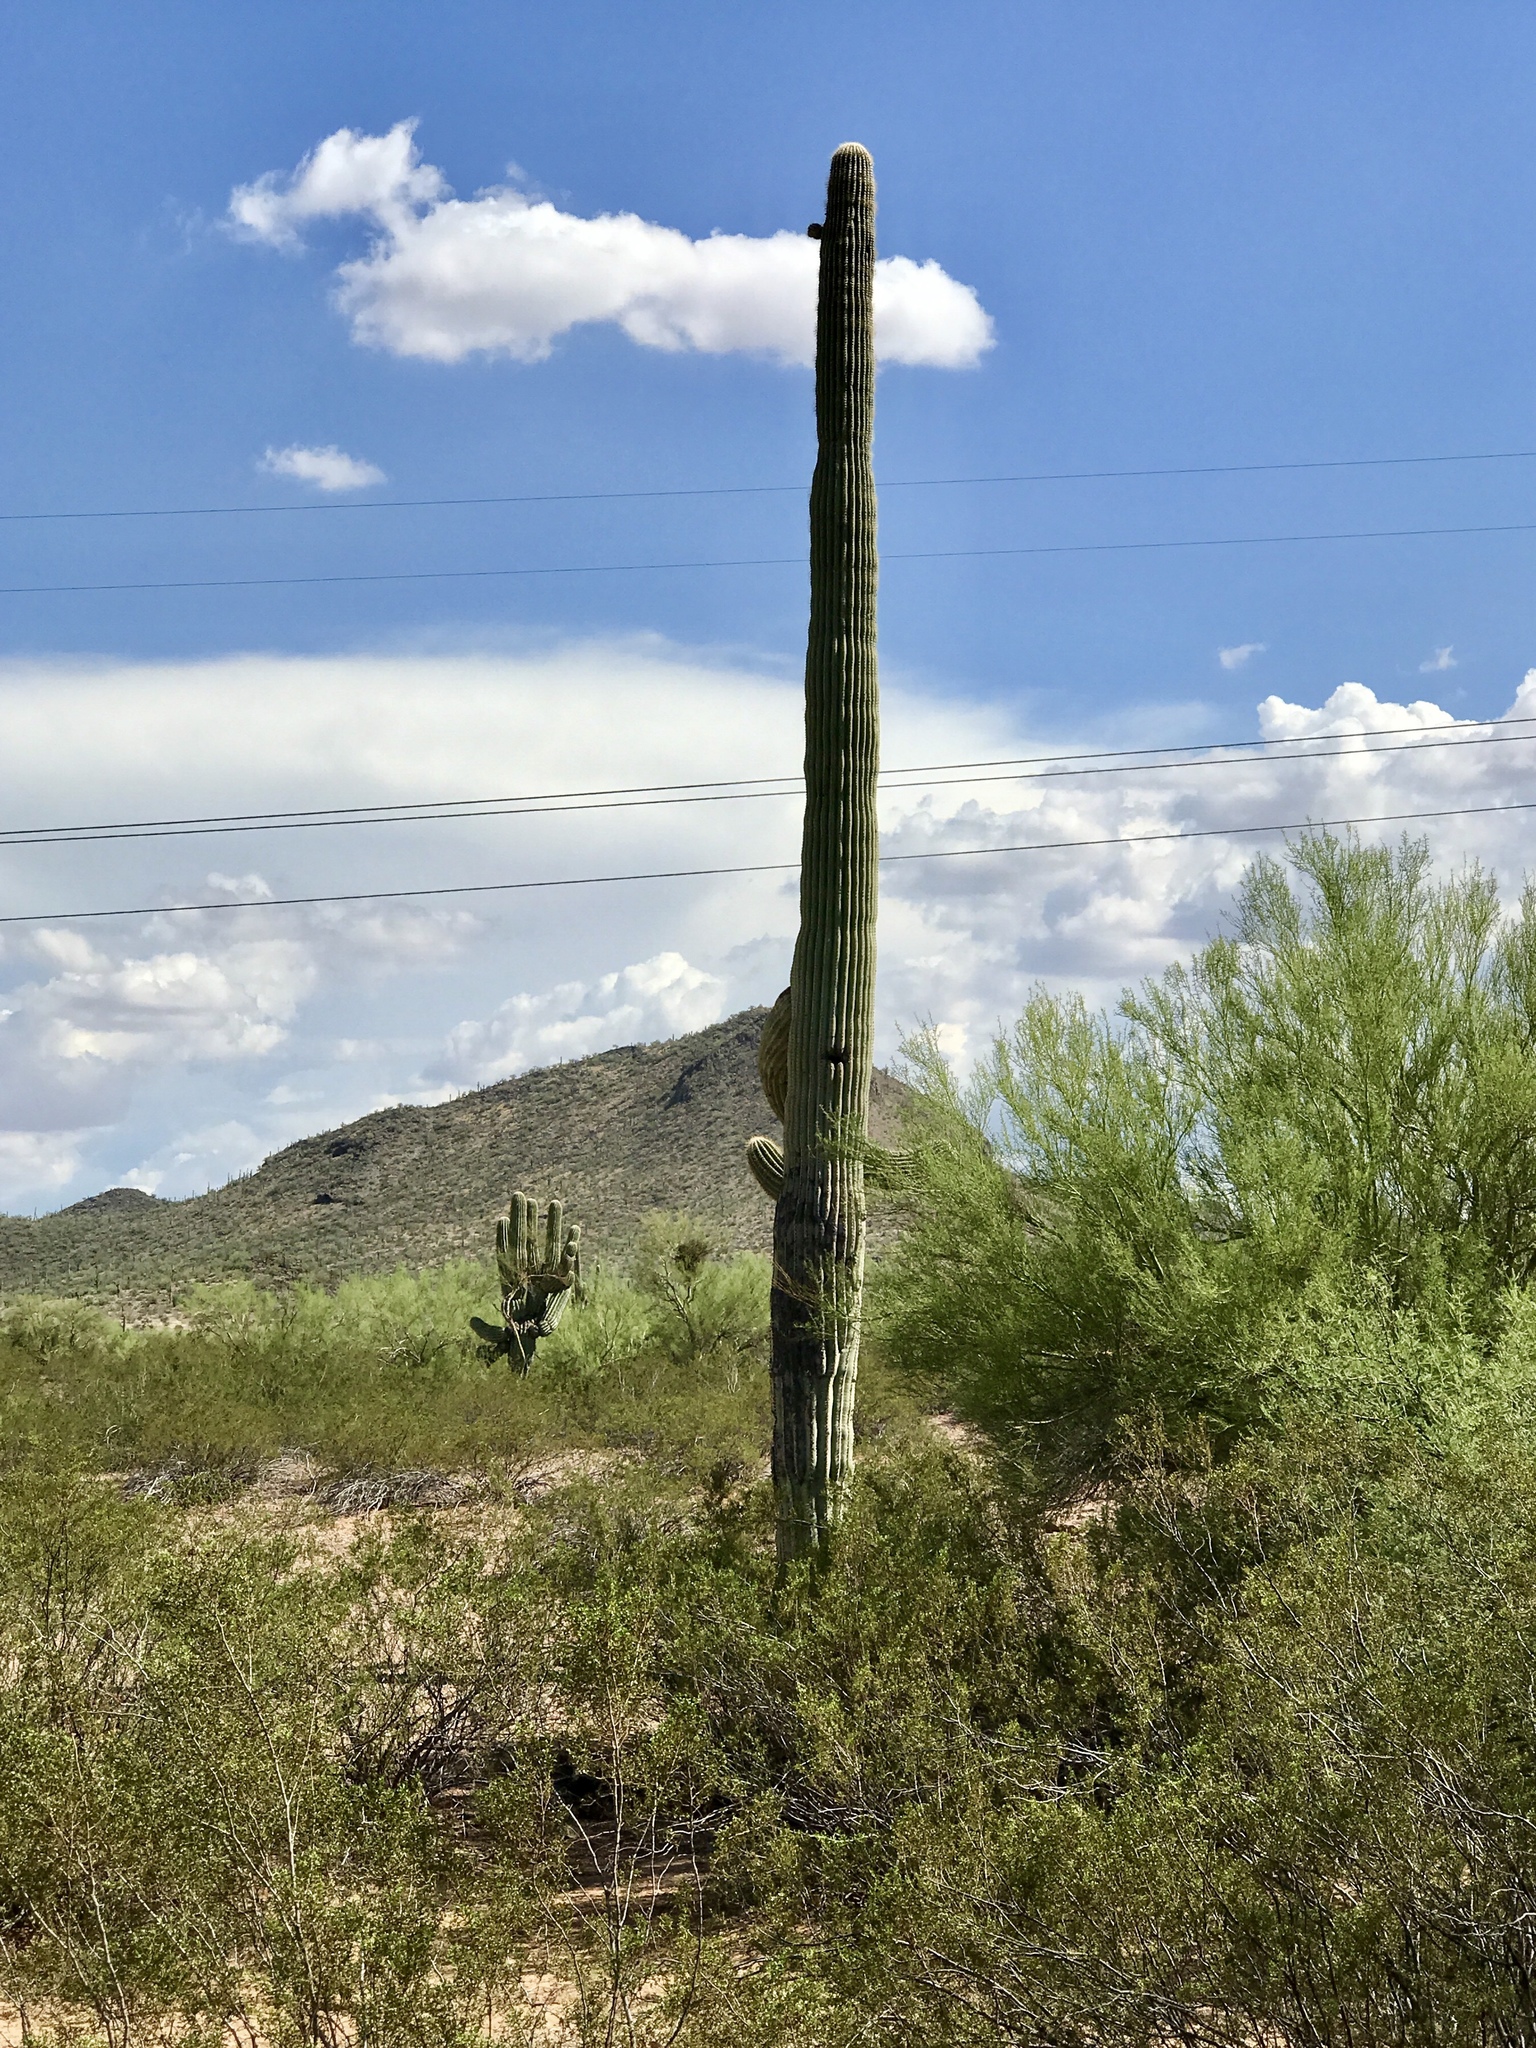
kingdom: Plantae
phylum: Tracheophyta
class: Magnoliopsida
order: Caryophyllales
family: Cactaceae
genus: Carnegiea
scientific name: Carnegiea gigantea
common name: Saguaro
